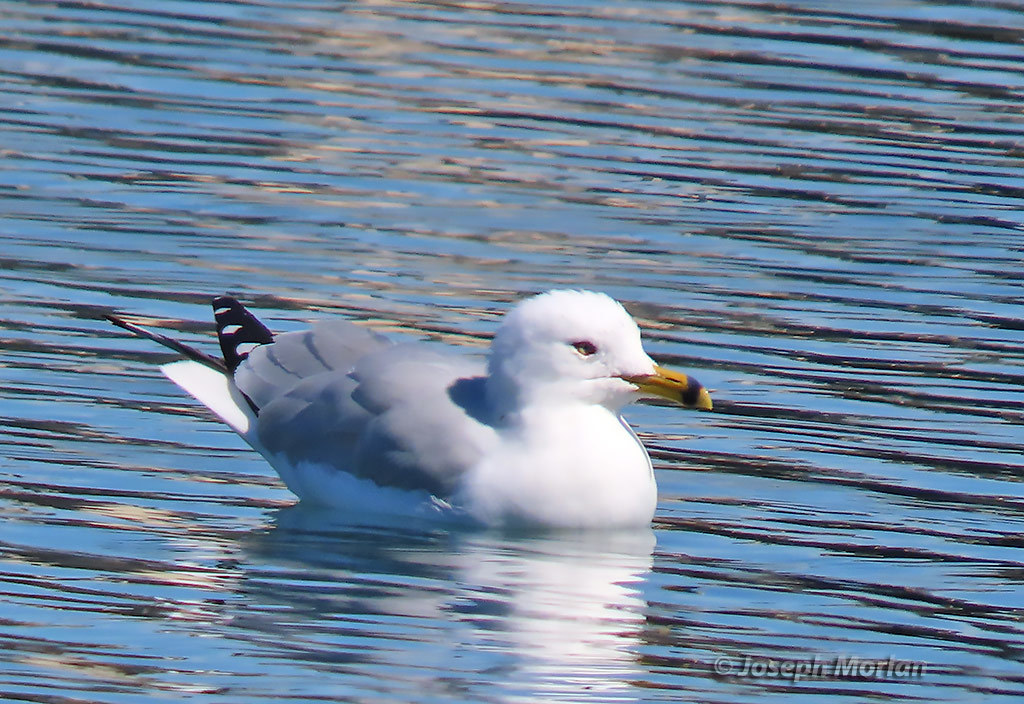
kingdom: Animalia
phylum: Chordata
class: Aves
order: Charadriiformes
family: Laridae
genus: Larus
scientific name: Larus delawarensis
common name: Ring-billed gull
